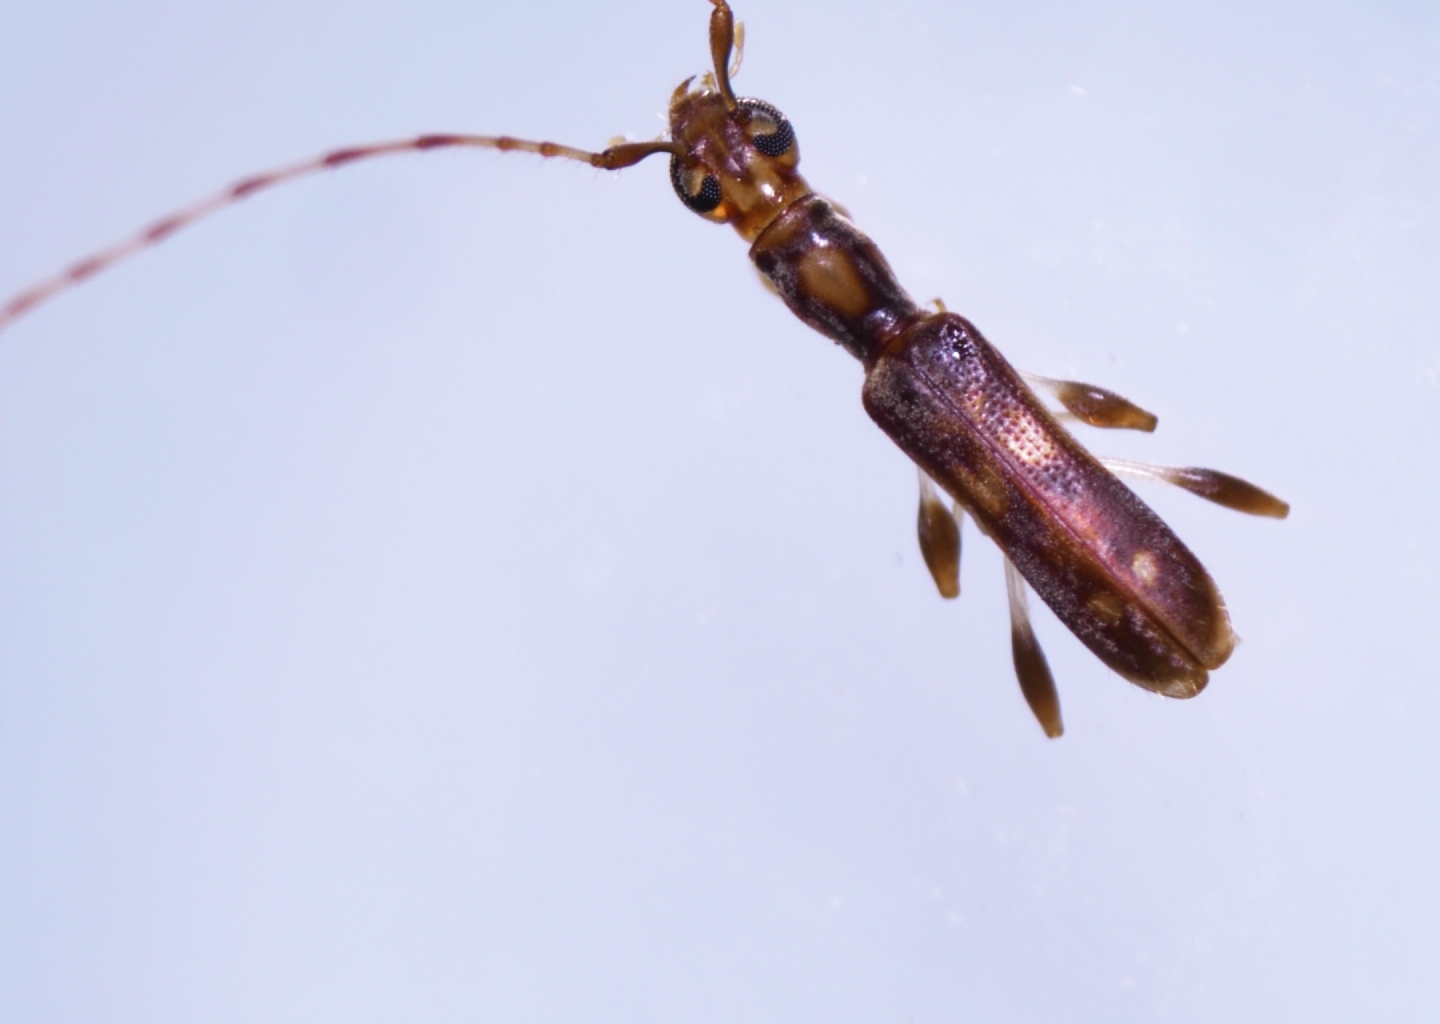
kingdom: Animalia
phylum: Arthropoda
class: Insecta
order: Coleoptera
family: Cerambycidae
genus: Longipalpus
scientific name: Longipalpus gynandropsidis
